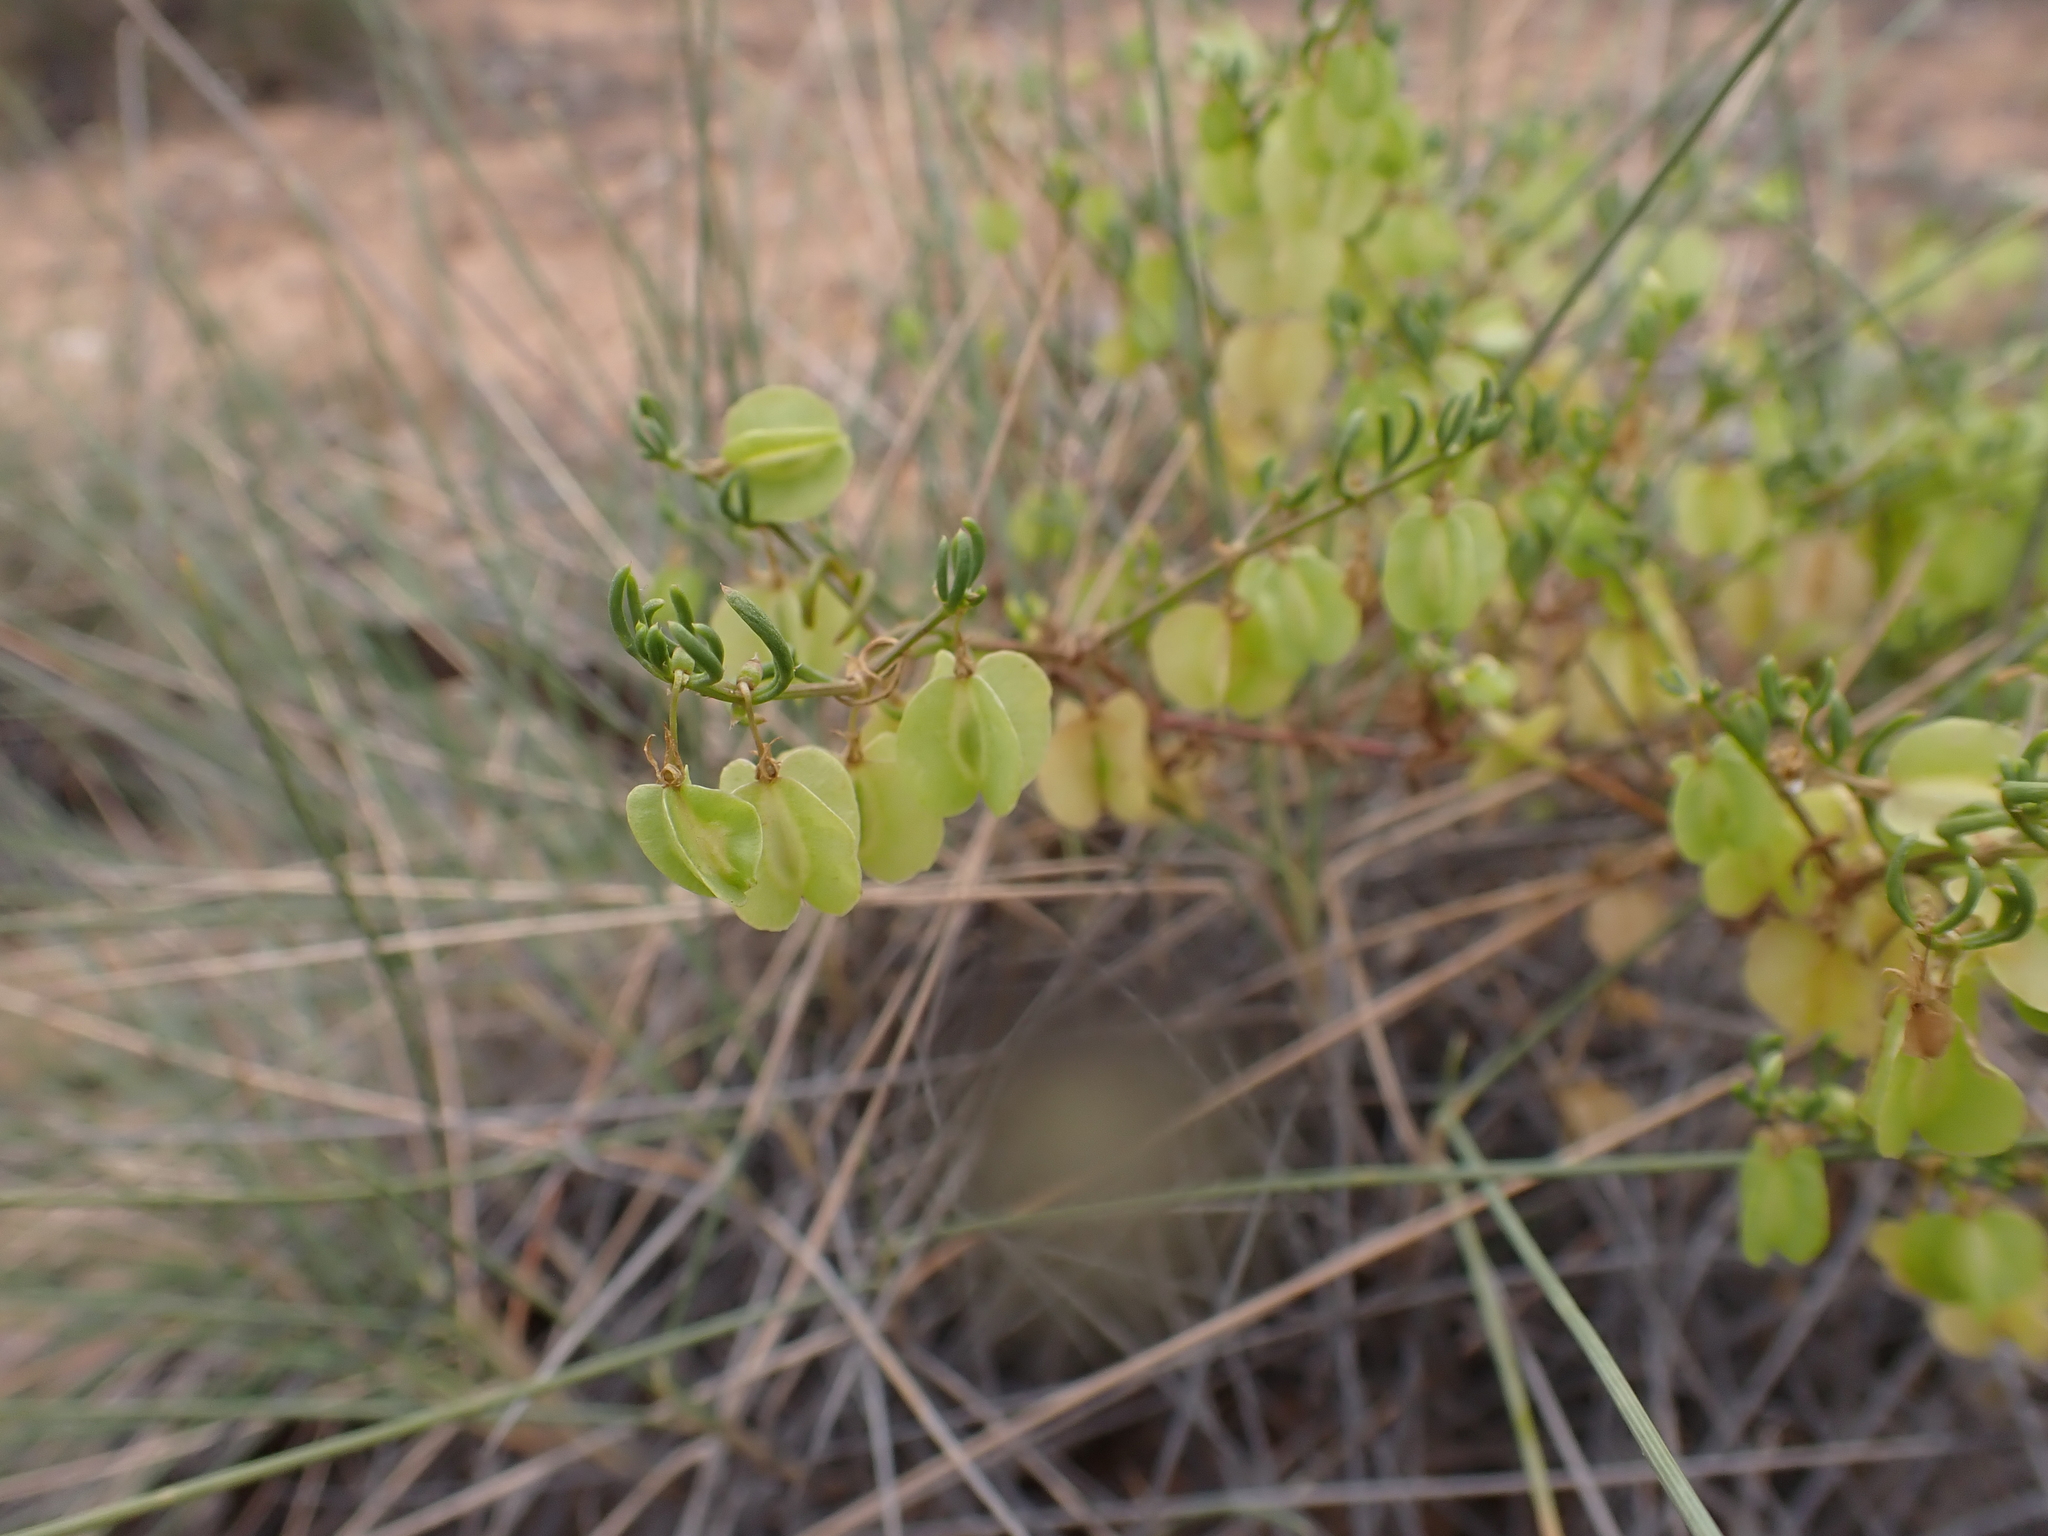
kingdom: Plantae
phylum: Tracheophyta
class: Magnoliopsida
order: Zygophyllales
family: Zygophyllaceae
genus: Roepera
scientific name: Roepera eremaea
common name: Climbing twinleaf
